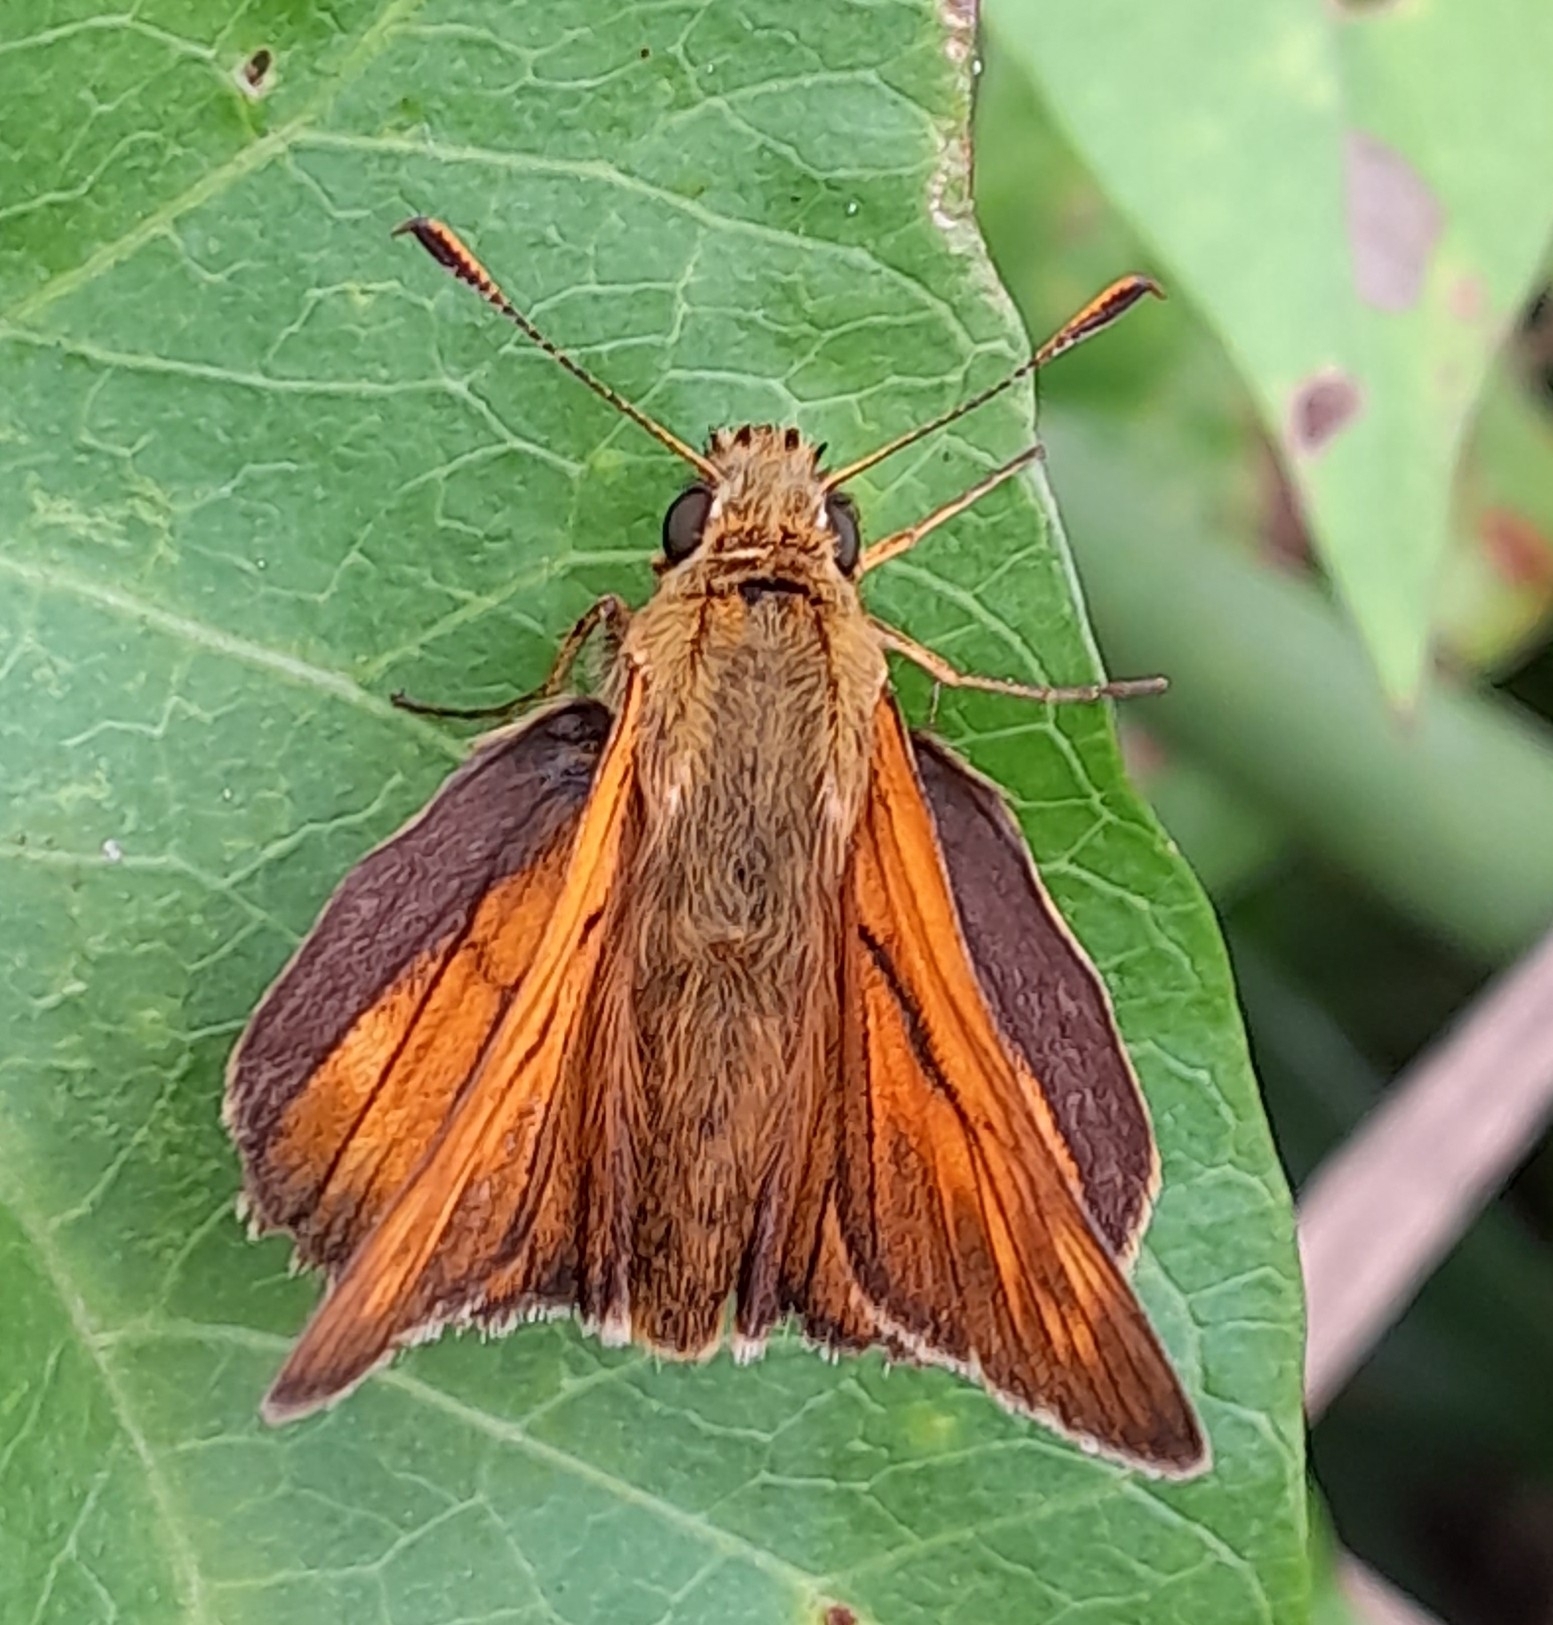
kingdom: Animalia
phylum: Arthropoda
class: Insecta
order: Lepidoptera
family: Hesperiidae
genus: Ochlodes
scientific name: Ochlodes venata
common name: Large skipper
